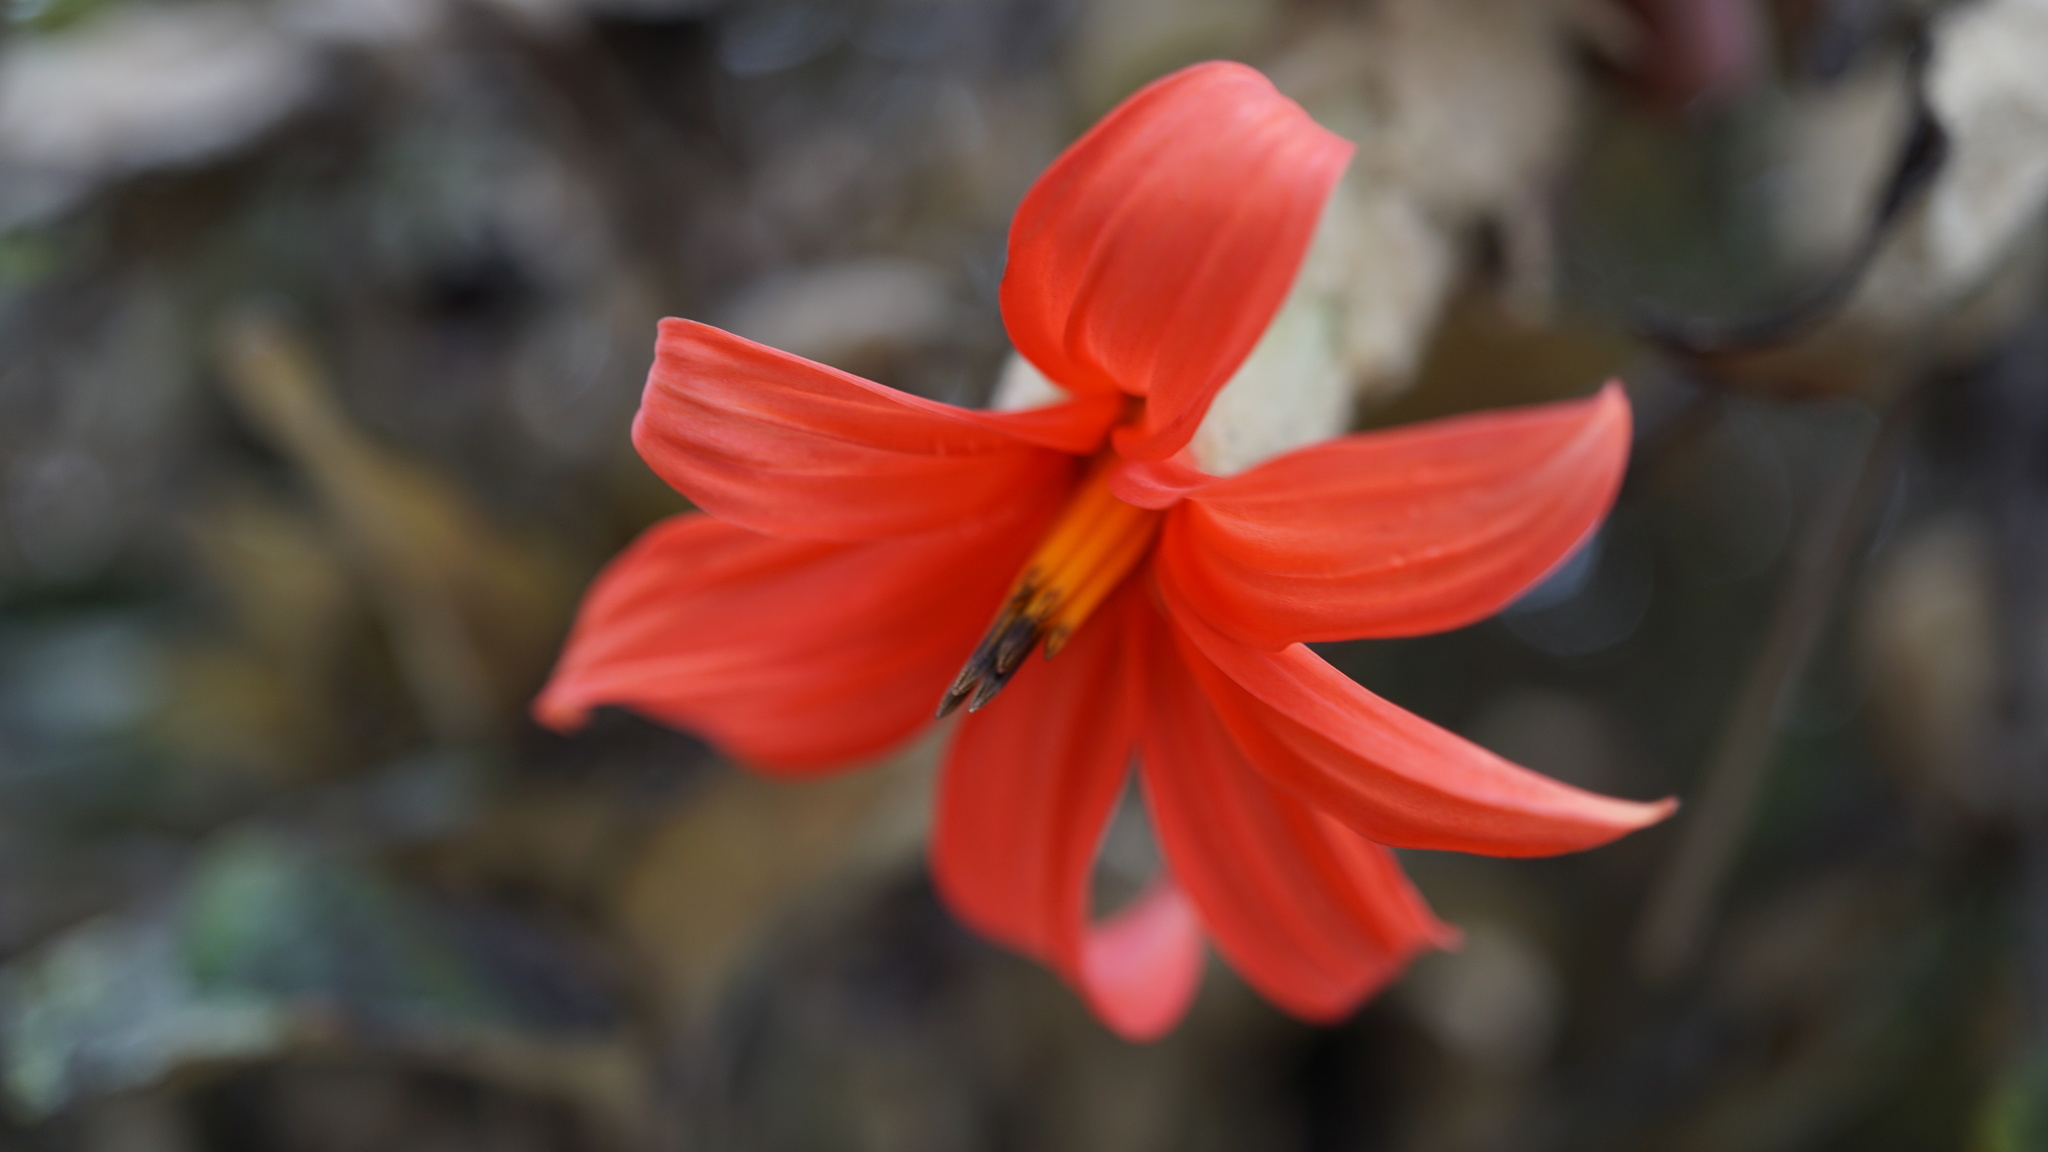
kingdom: Plantae
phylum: Tracheophyta
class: Magnoliopsida
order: Asterales
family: Asteraceae
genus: Mutisia
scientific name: Mutisia clematis
